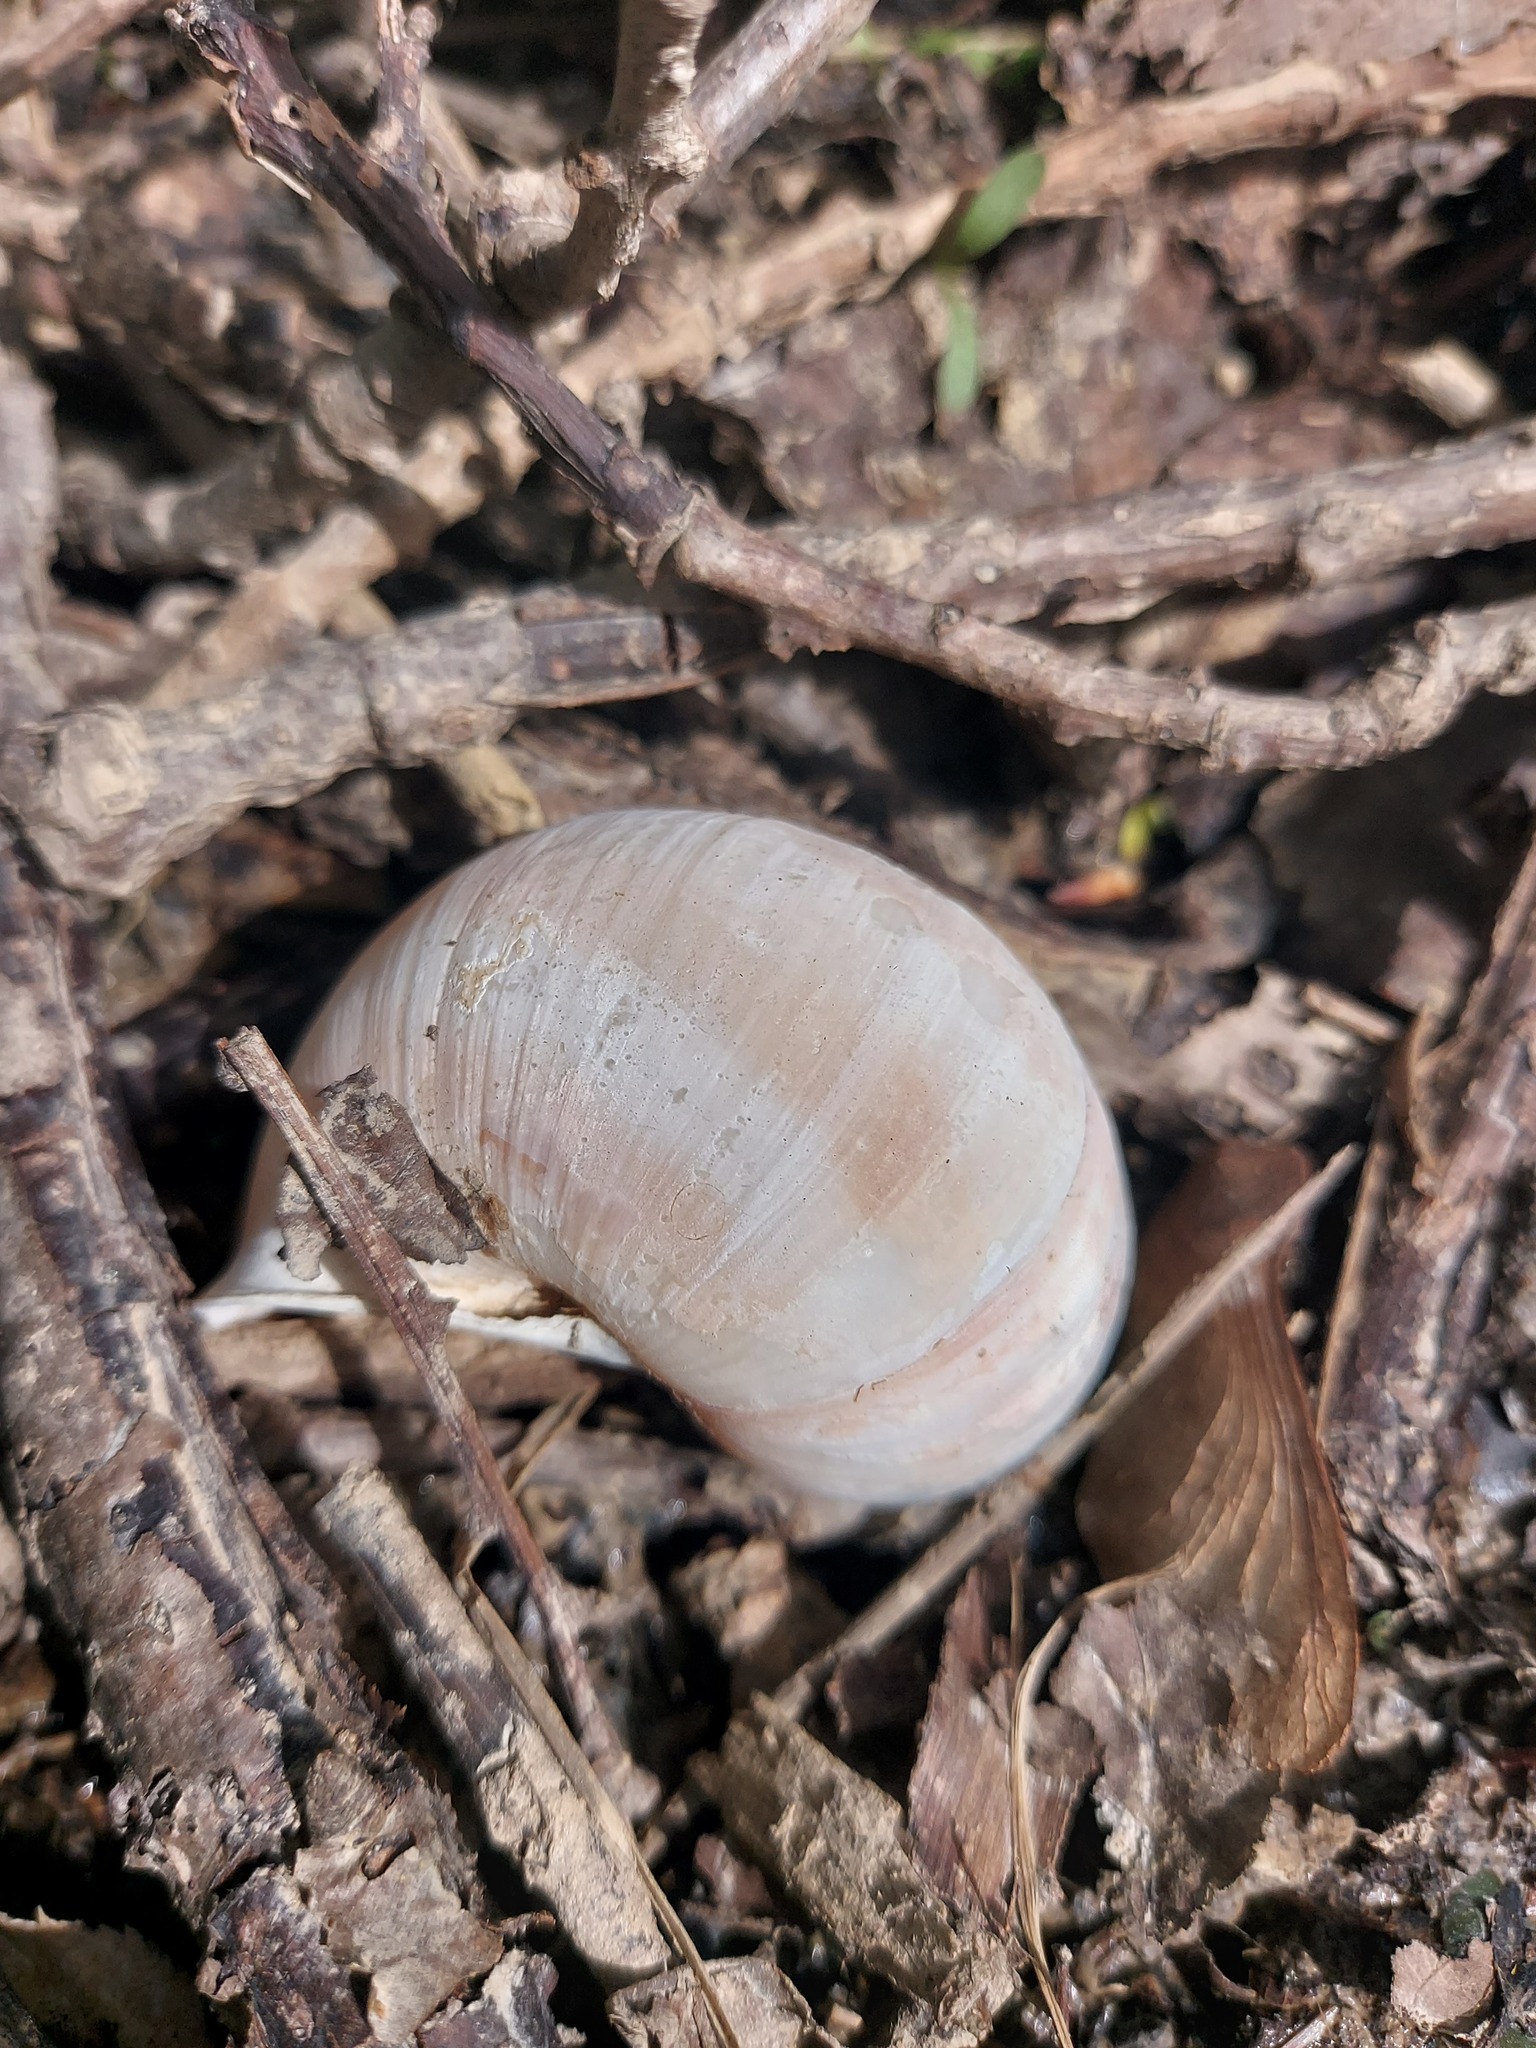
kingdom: Animalia
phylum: Mollusca
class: Gastropoda
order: Stylommatophora
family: Helicidae
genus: Helix
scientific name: Helix pomatia
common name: Roman snail
